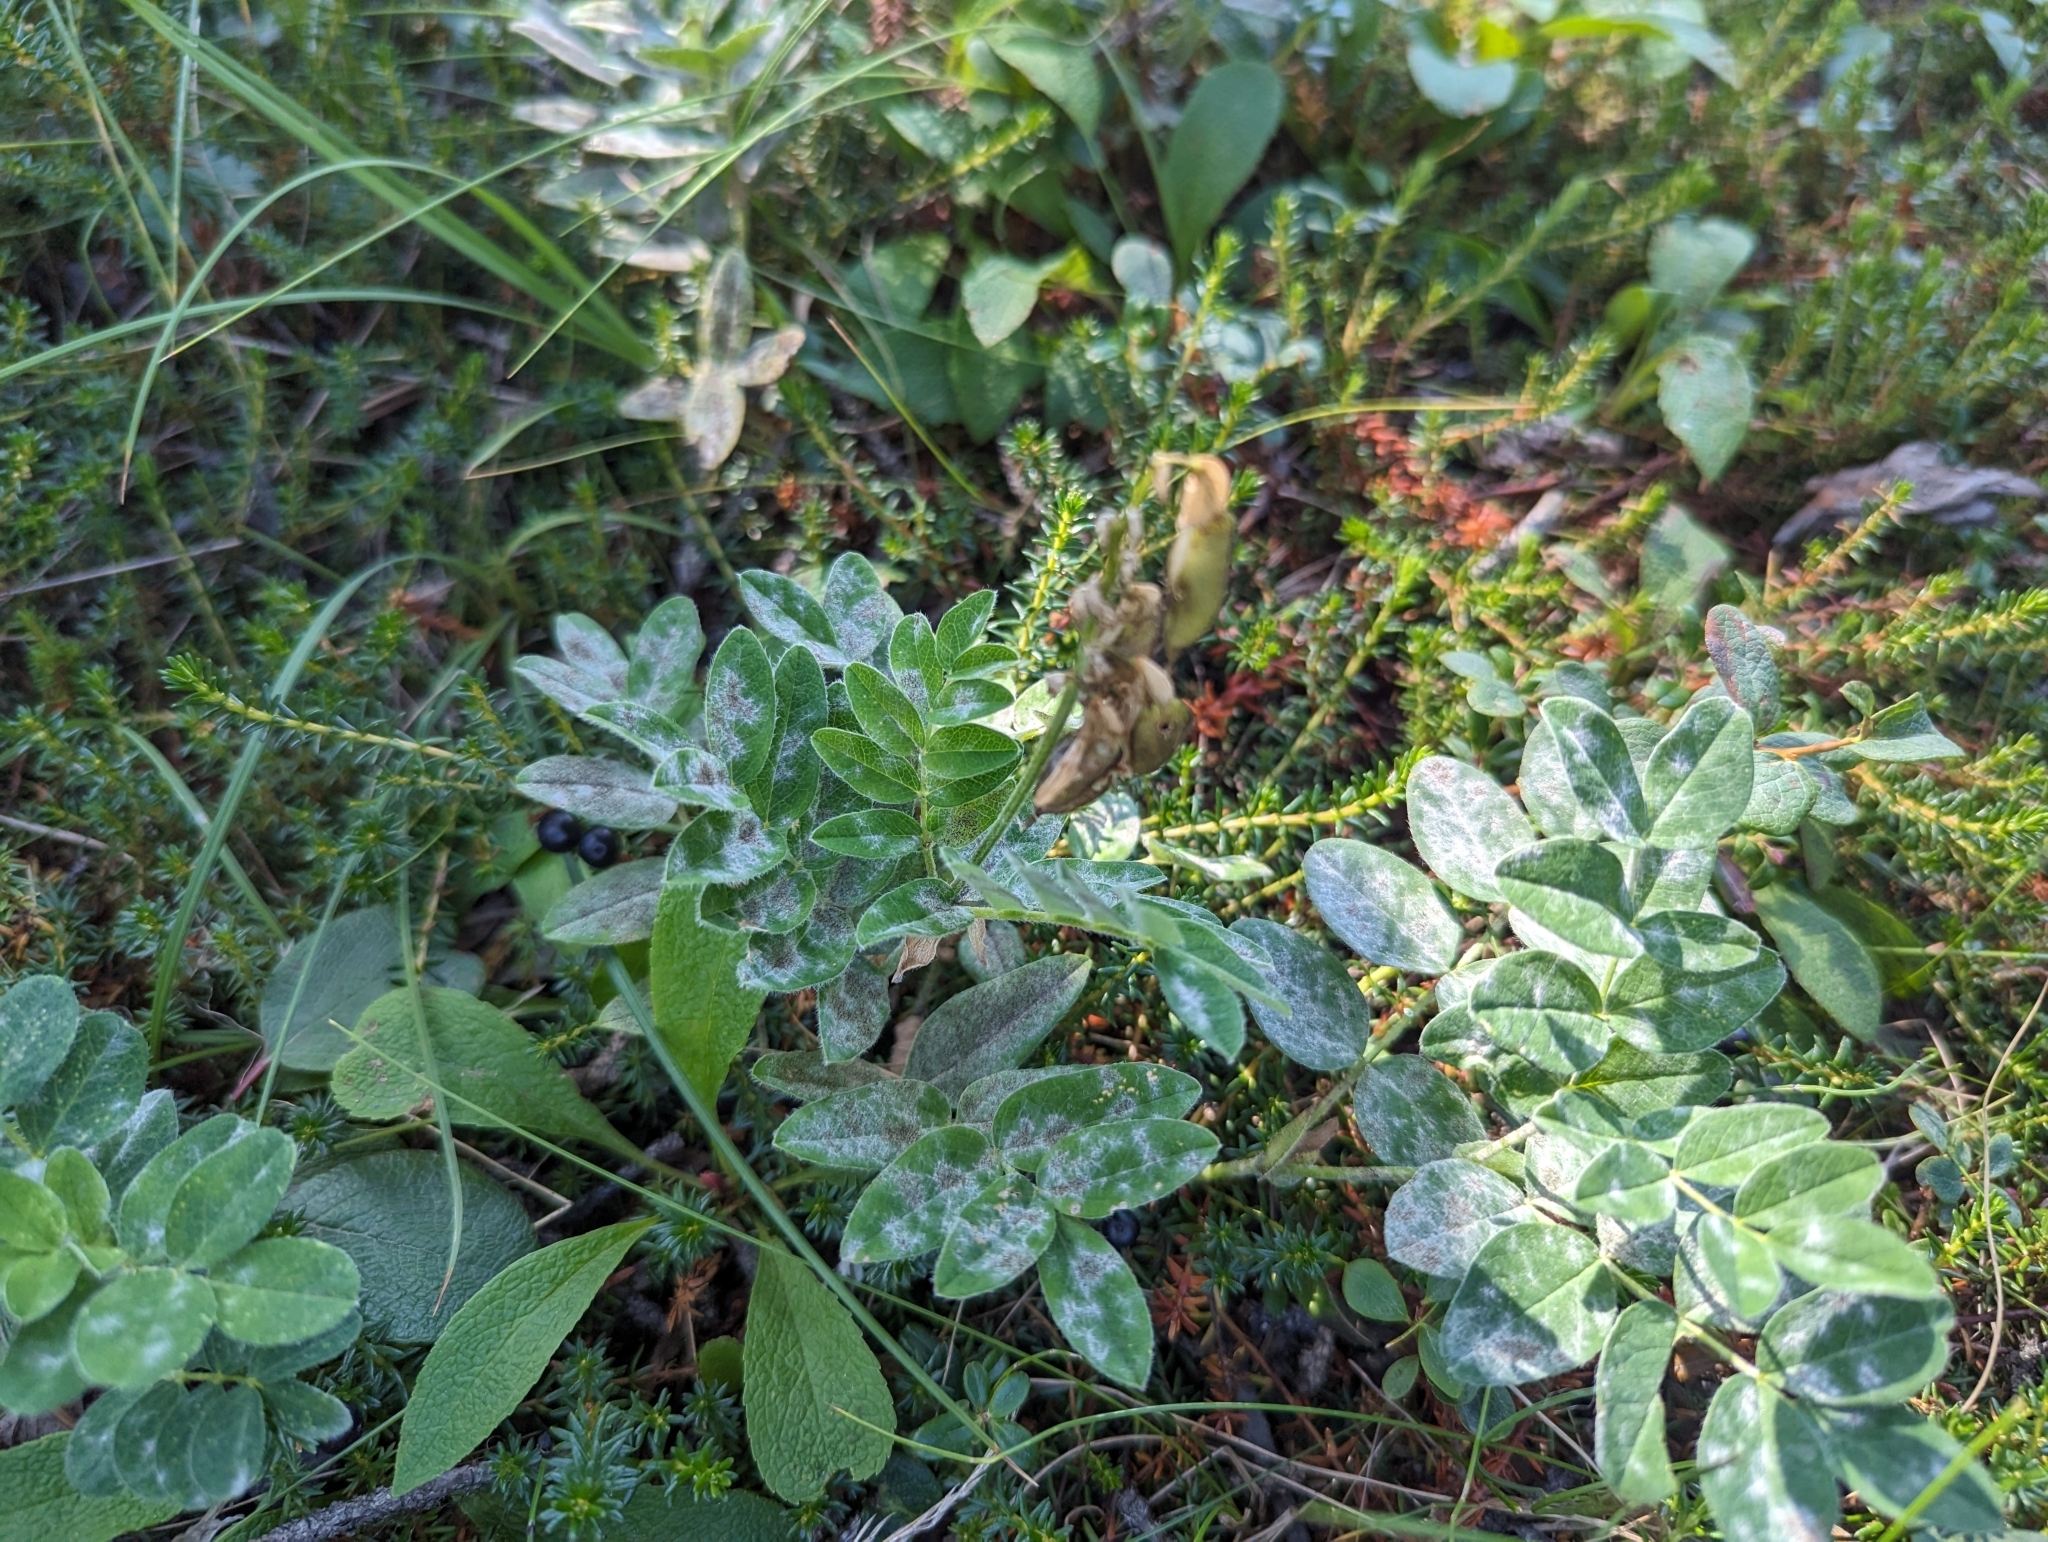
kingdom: Plantae
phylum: Tracheophyta
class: Magnoliopsida
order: Fabales
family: Fabaceae
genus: Astragalus
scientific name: Astragalus umbellatus
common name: Tundra milk-vetch
